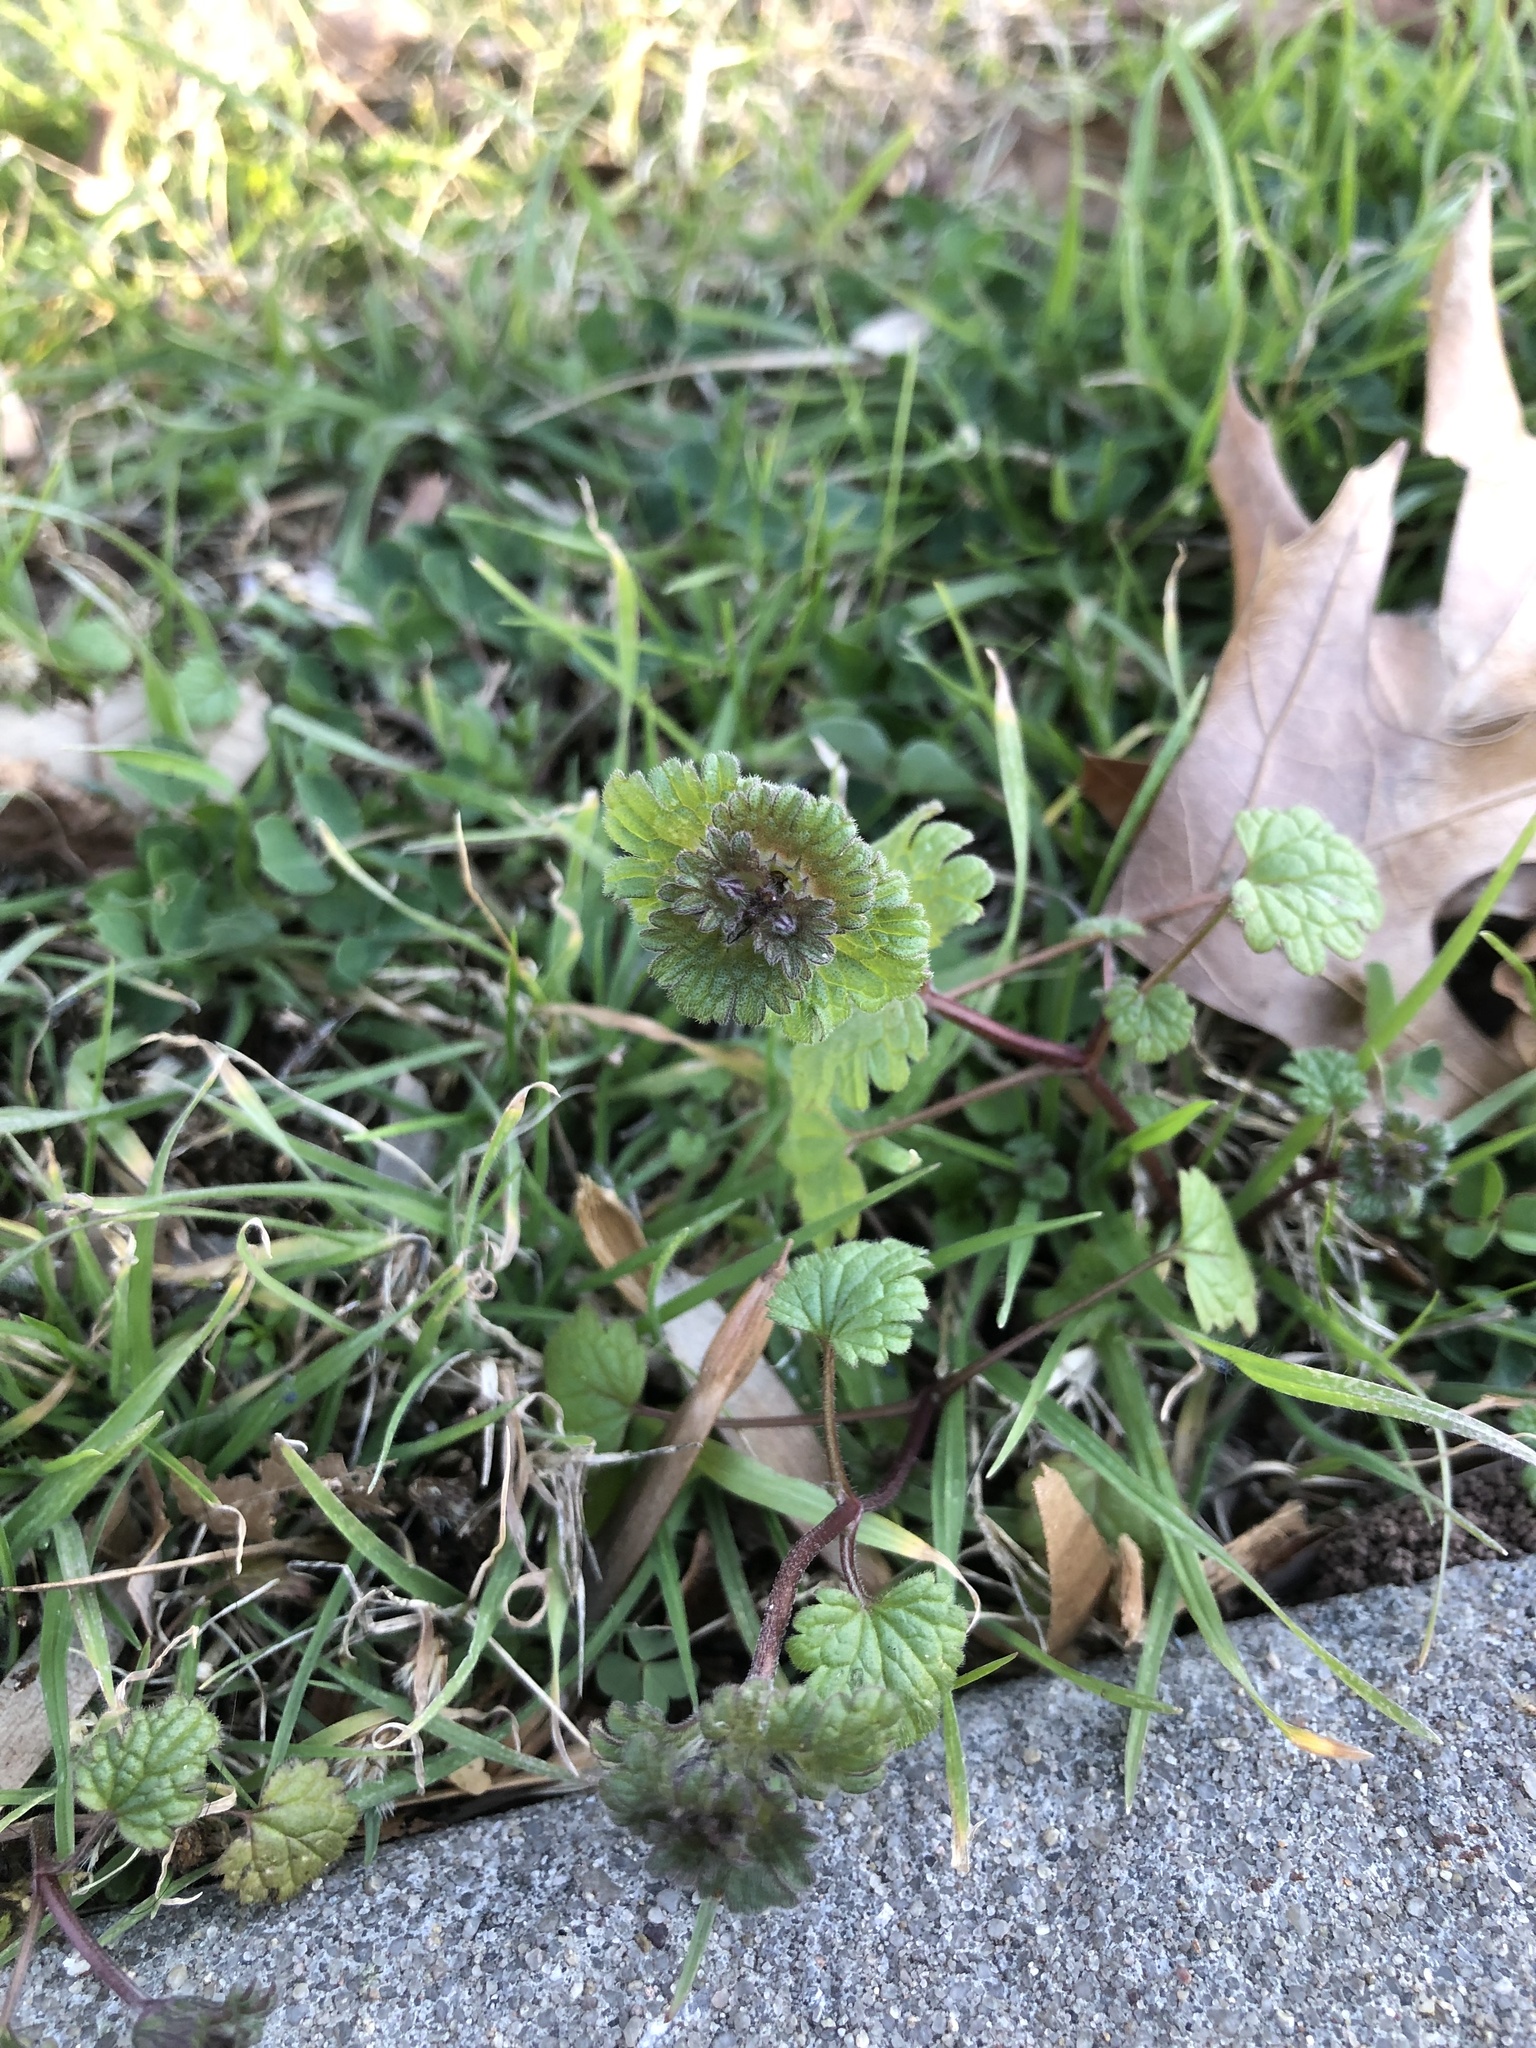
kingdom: Plantae
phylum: Tracheophyta
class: Magnoliopsida
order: Lamiales
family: Lamiaceae
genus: Lamium
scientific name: Lamium amplexicaule
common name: Henbit dead-nettle
